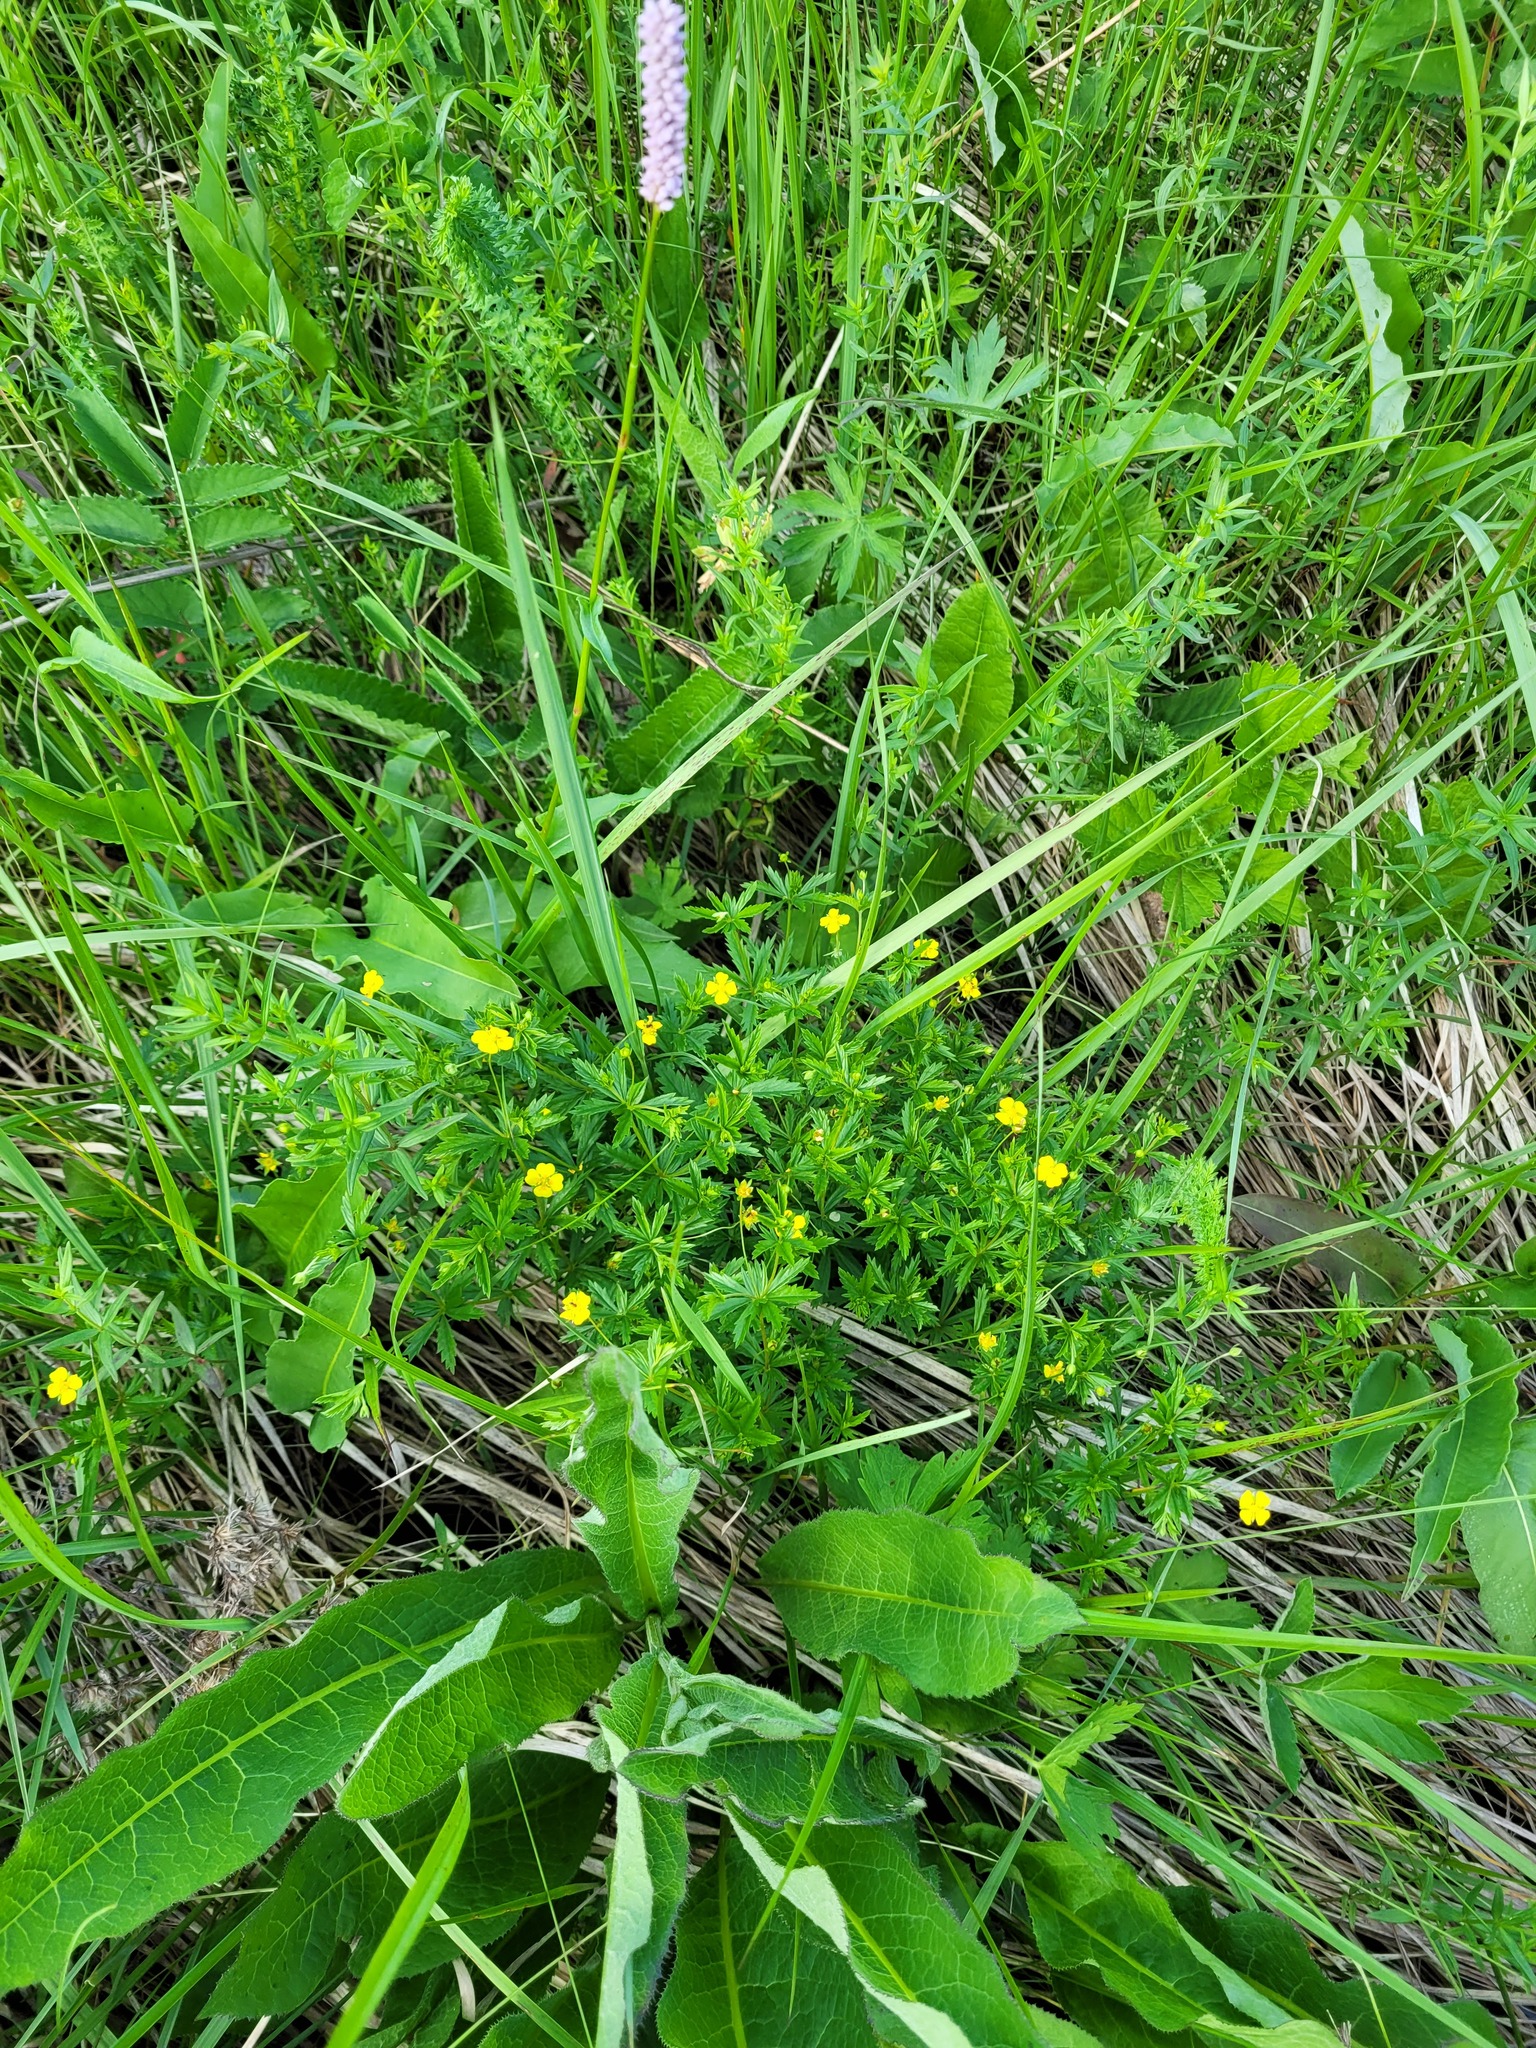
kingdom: Plantae
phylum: Tracheophyta
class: Magnoliopsida
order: Rosales
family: Rosaceae
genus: Potentilla
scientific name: Potentilla erecta
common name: Tormentil
